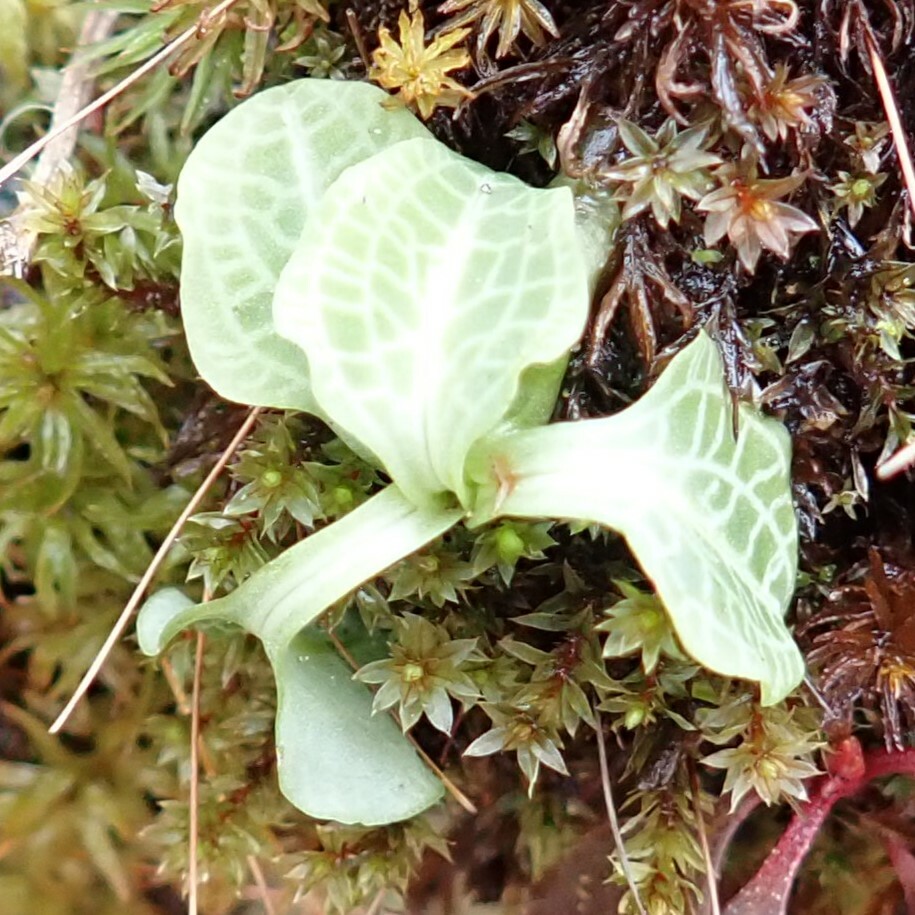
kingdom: Plantae
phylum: Tracheophyta
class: Liliopsida
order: Asparagales
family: Orchidaceae
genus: Goodyera
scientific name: Goodyera pubescens
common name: Downy rattlesnake-plantain
